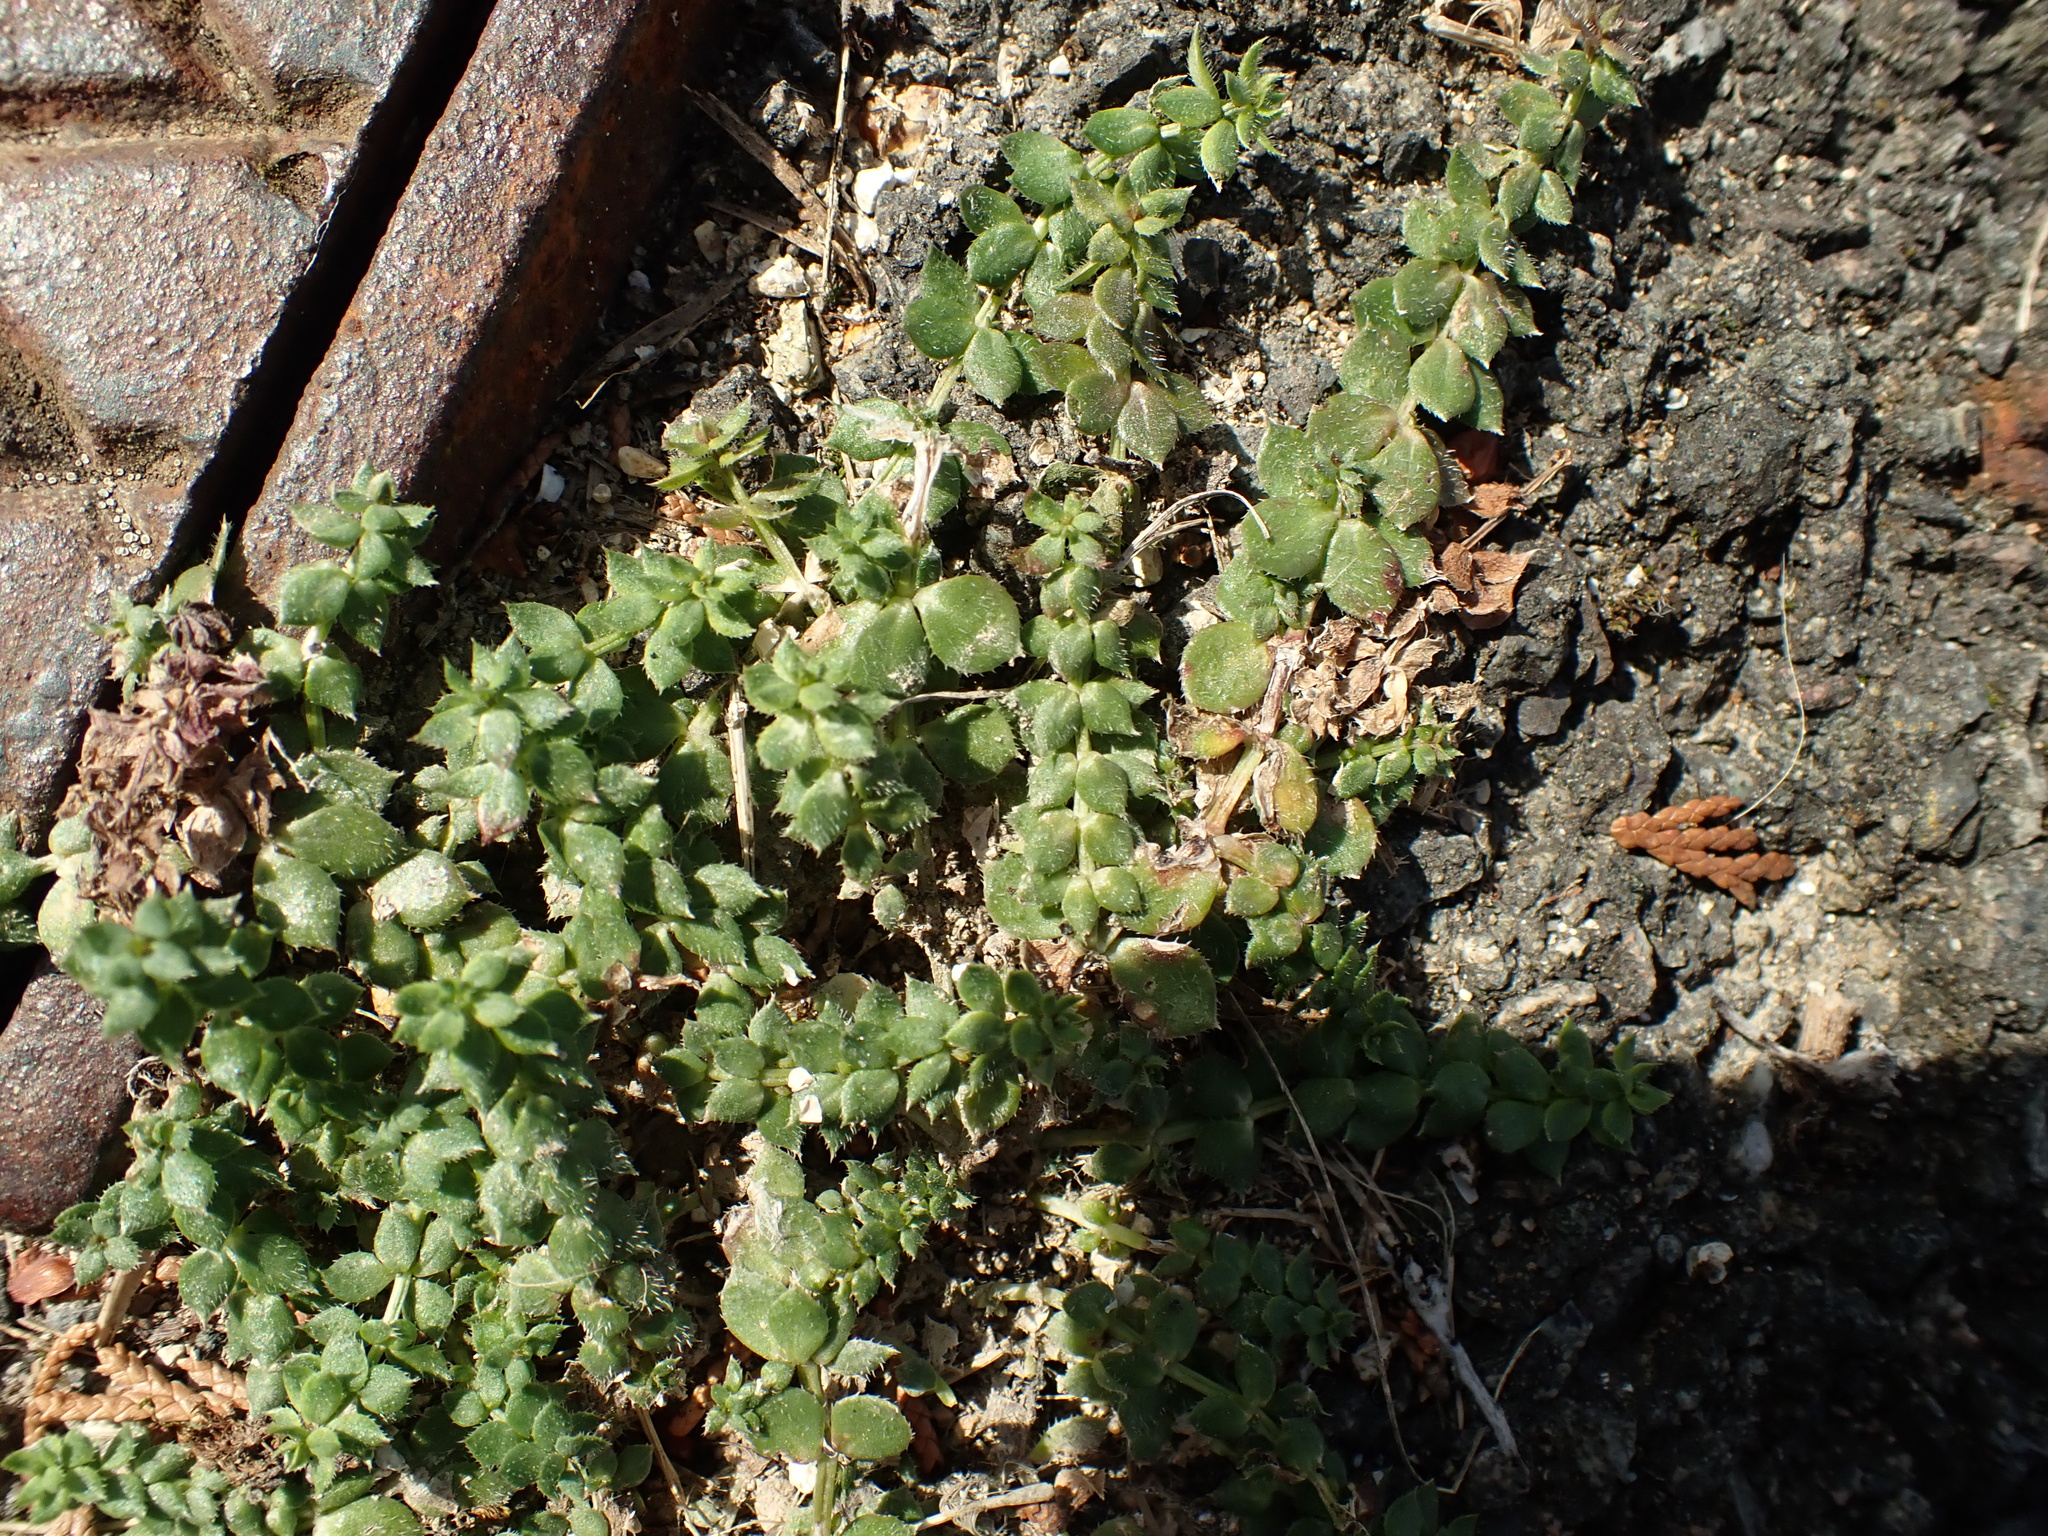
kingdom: Plantae
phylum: Tracheophyta
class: Magnoliopsida
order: Gentianales
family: Rubiaceae
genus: Sherardia
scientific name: Sherardia arvensis
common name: Field madder
